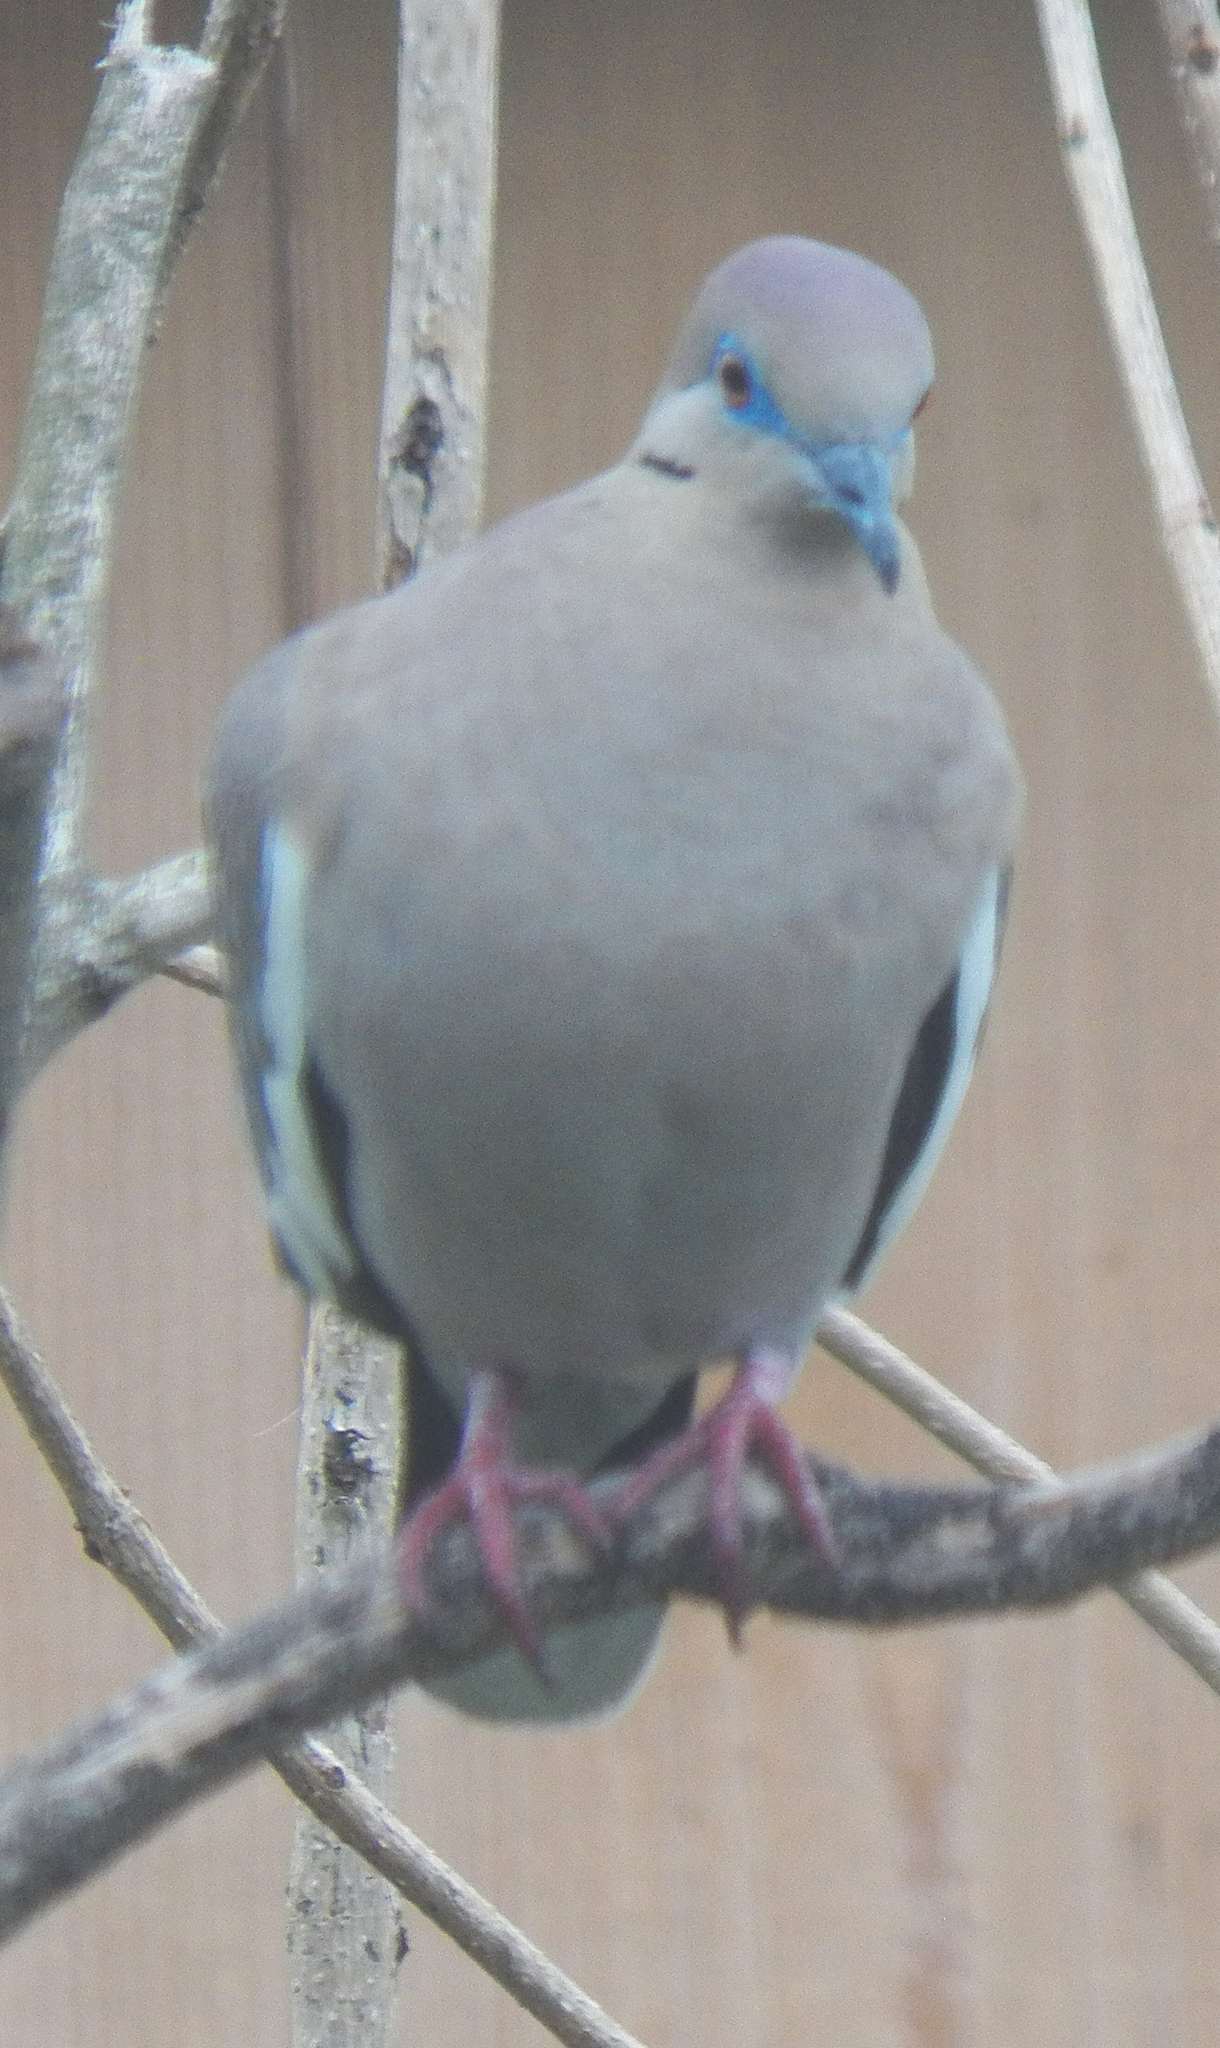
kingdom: Animalia
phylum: Chordata
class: Aves
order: Columbiformes
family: Columbidae
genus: Zenaida
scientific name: Zenaida asiatica
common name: White-winged dove
